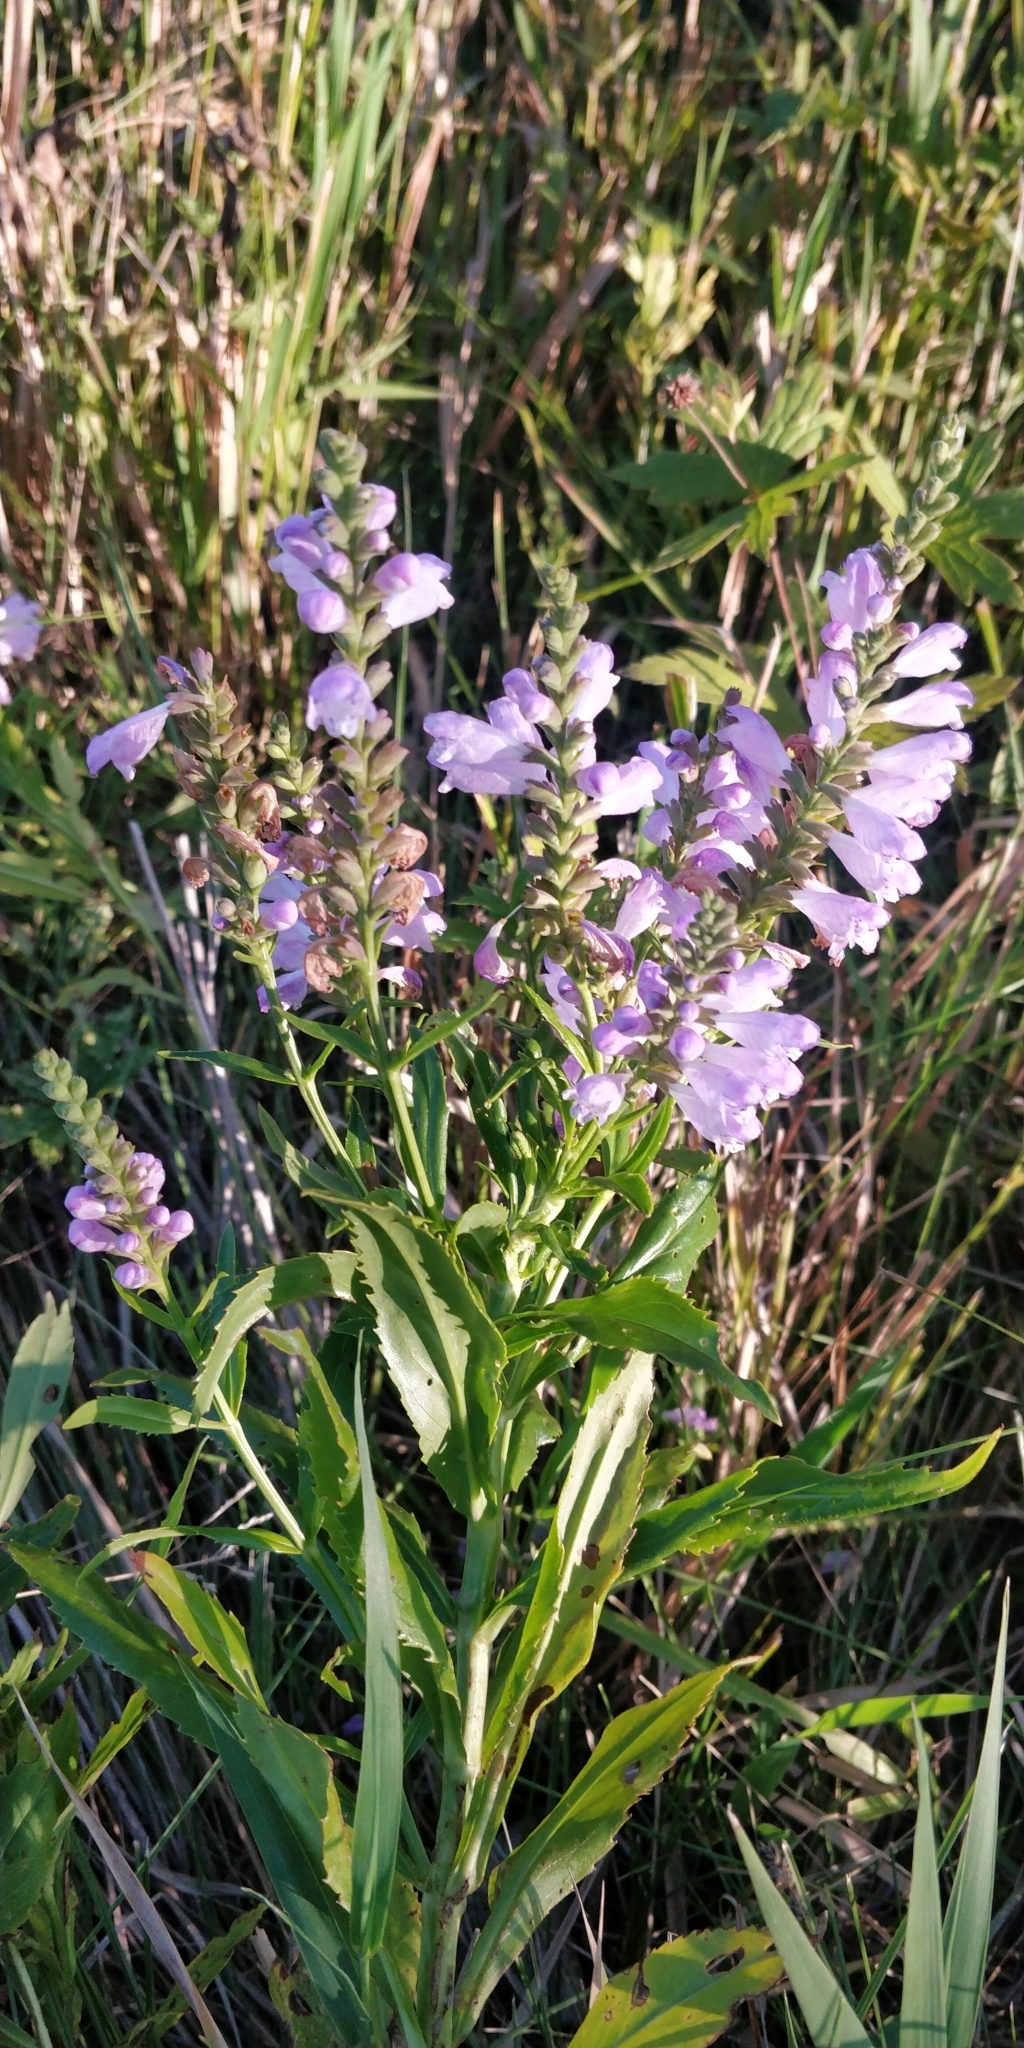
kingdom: Plantae
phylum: Tracheophyta
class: Magnoliopsida
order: Lamiales
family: Lamiaceae
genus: Physostegia
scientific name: Physostegia virginiana
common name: Obedient-plant
